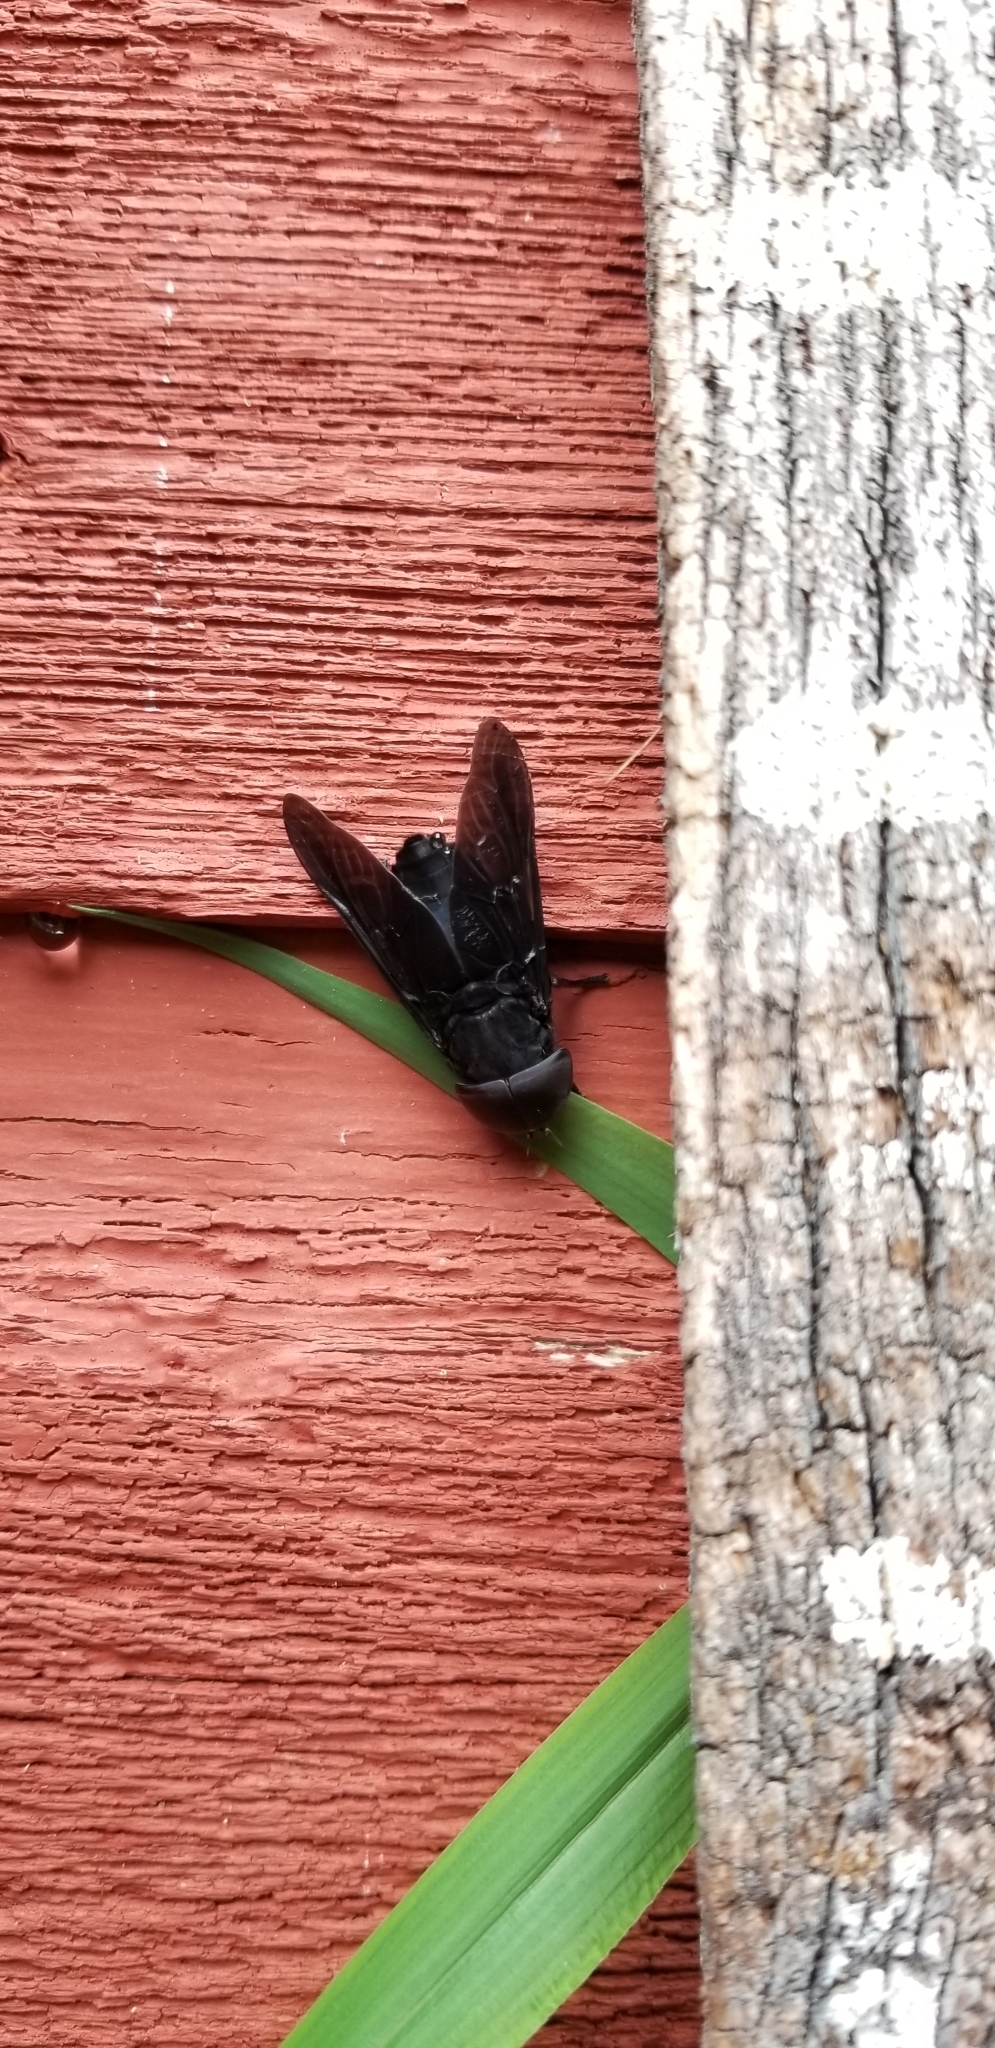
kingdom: Animalia
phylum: Arthropoda
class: Insecta
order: Diptera
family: Tabanidae
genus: Tabanus
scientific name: Tabanus atratus
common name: Black horse fly
